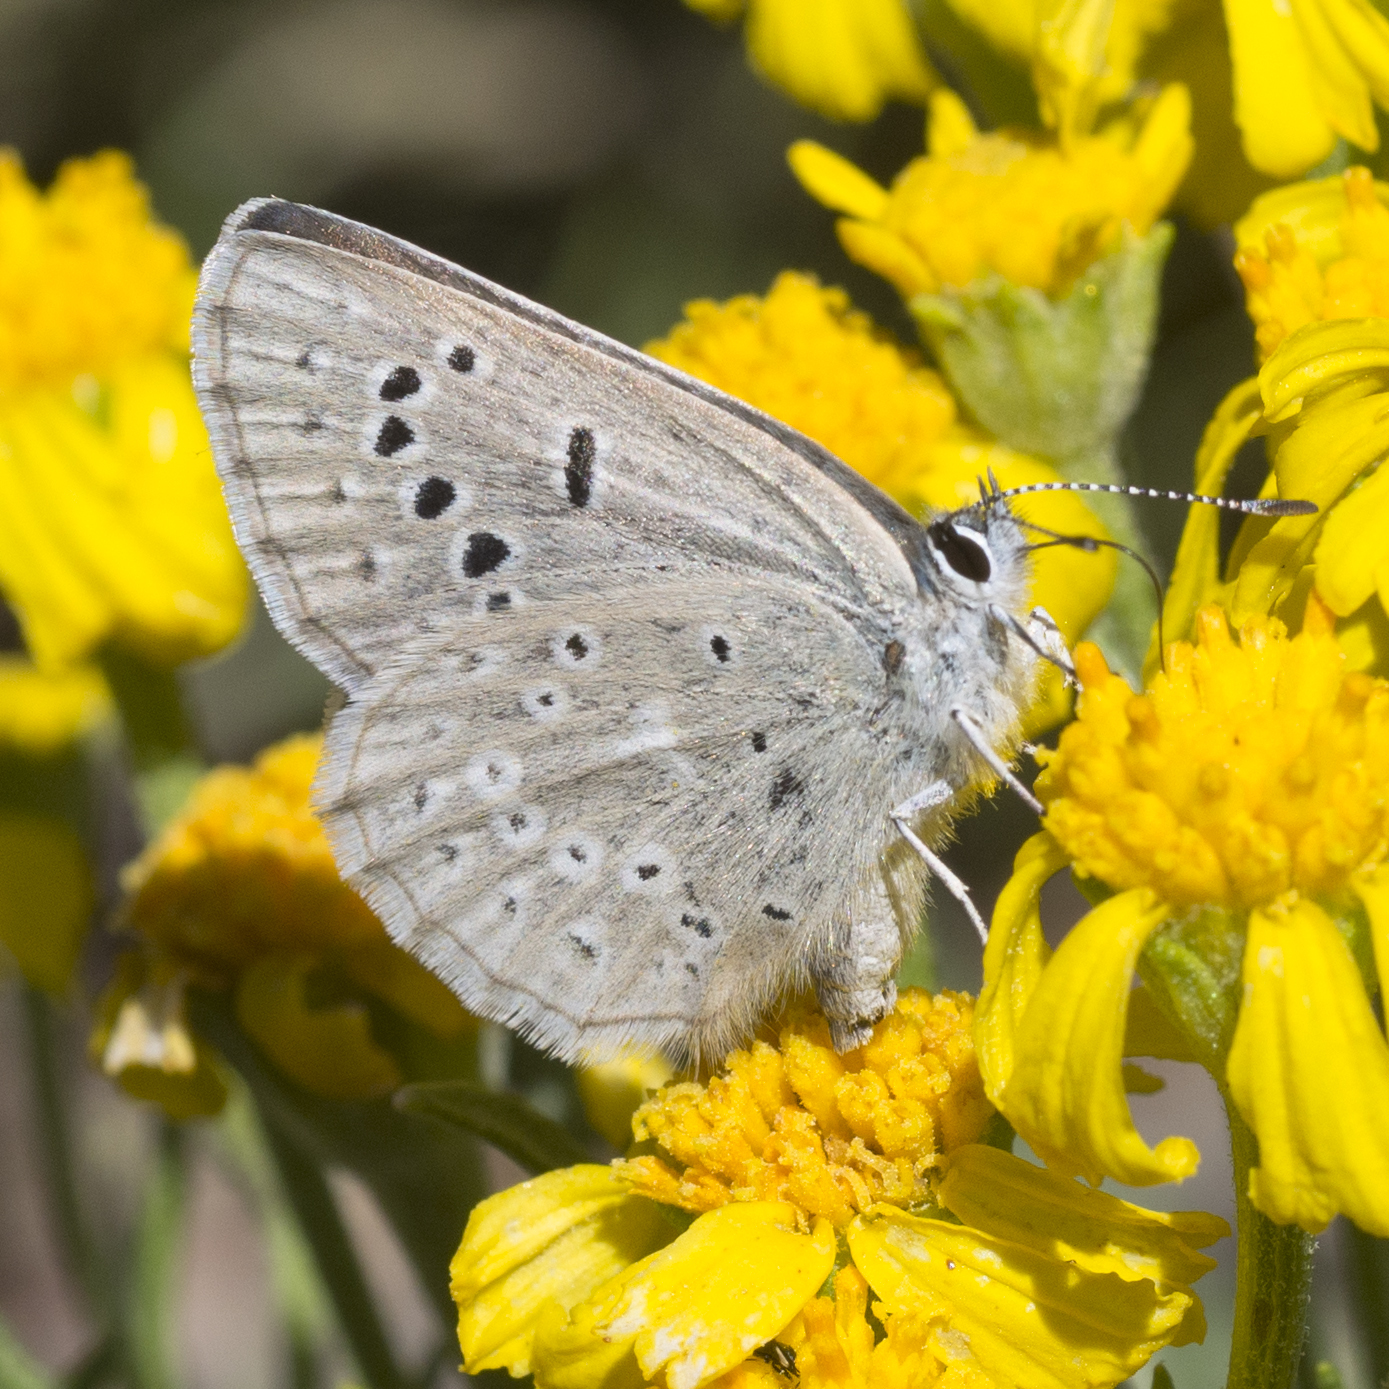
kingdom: Animalia
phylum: Arthropoda
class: Insecta
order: Lepidoptera
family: Lycaenidae
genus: Icaricia
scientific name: Icaricia icarioides
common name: Boisduval's blue
